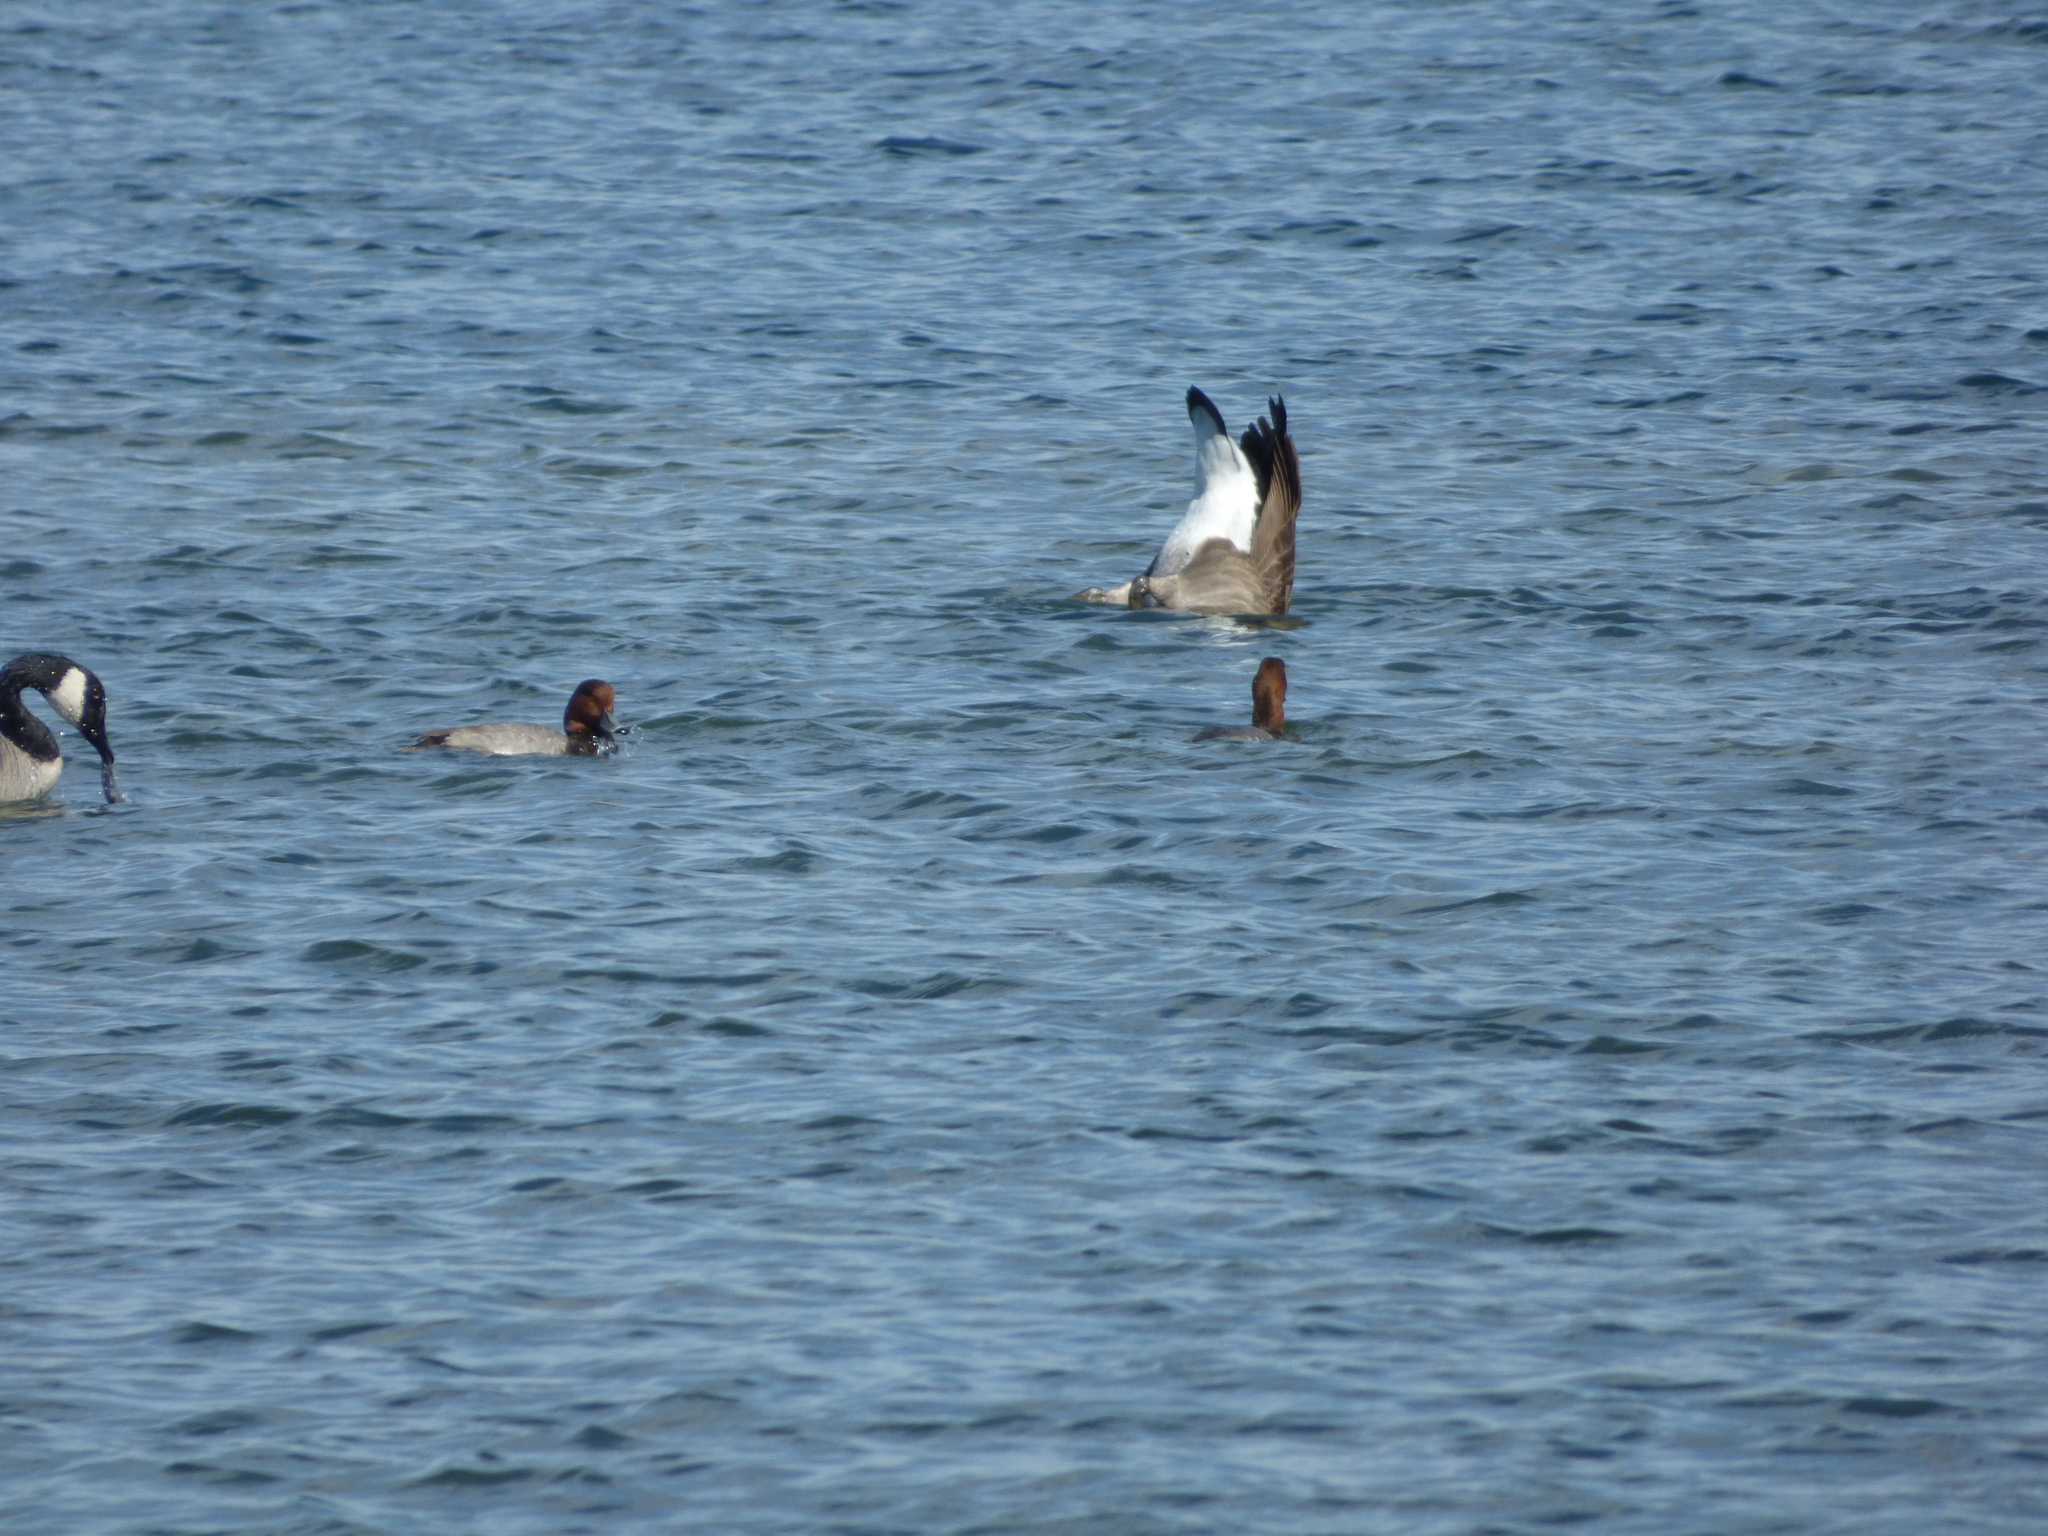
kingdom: Animalia
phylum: Chordata
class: Aves
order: Anseriformes
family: Anatidae
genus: Aythya
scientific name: Aythya americana
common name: Redhead
